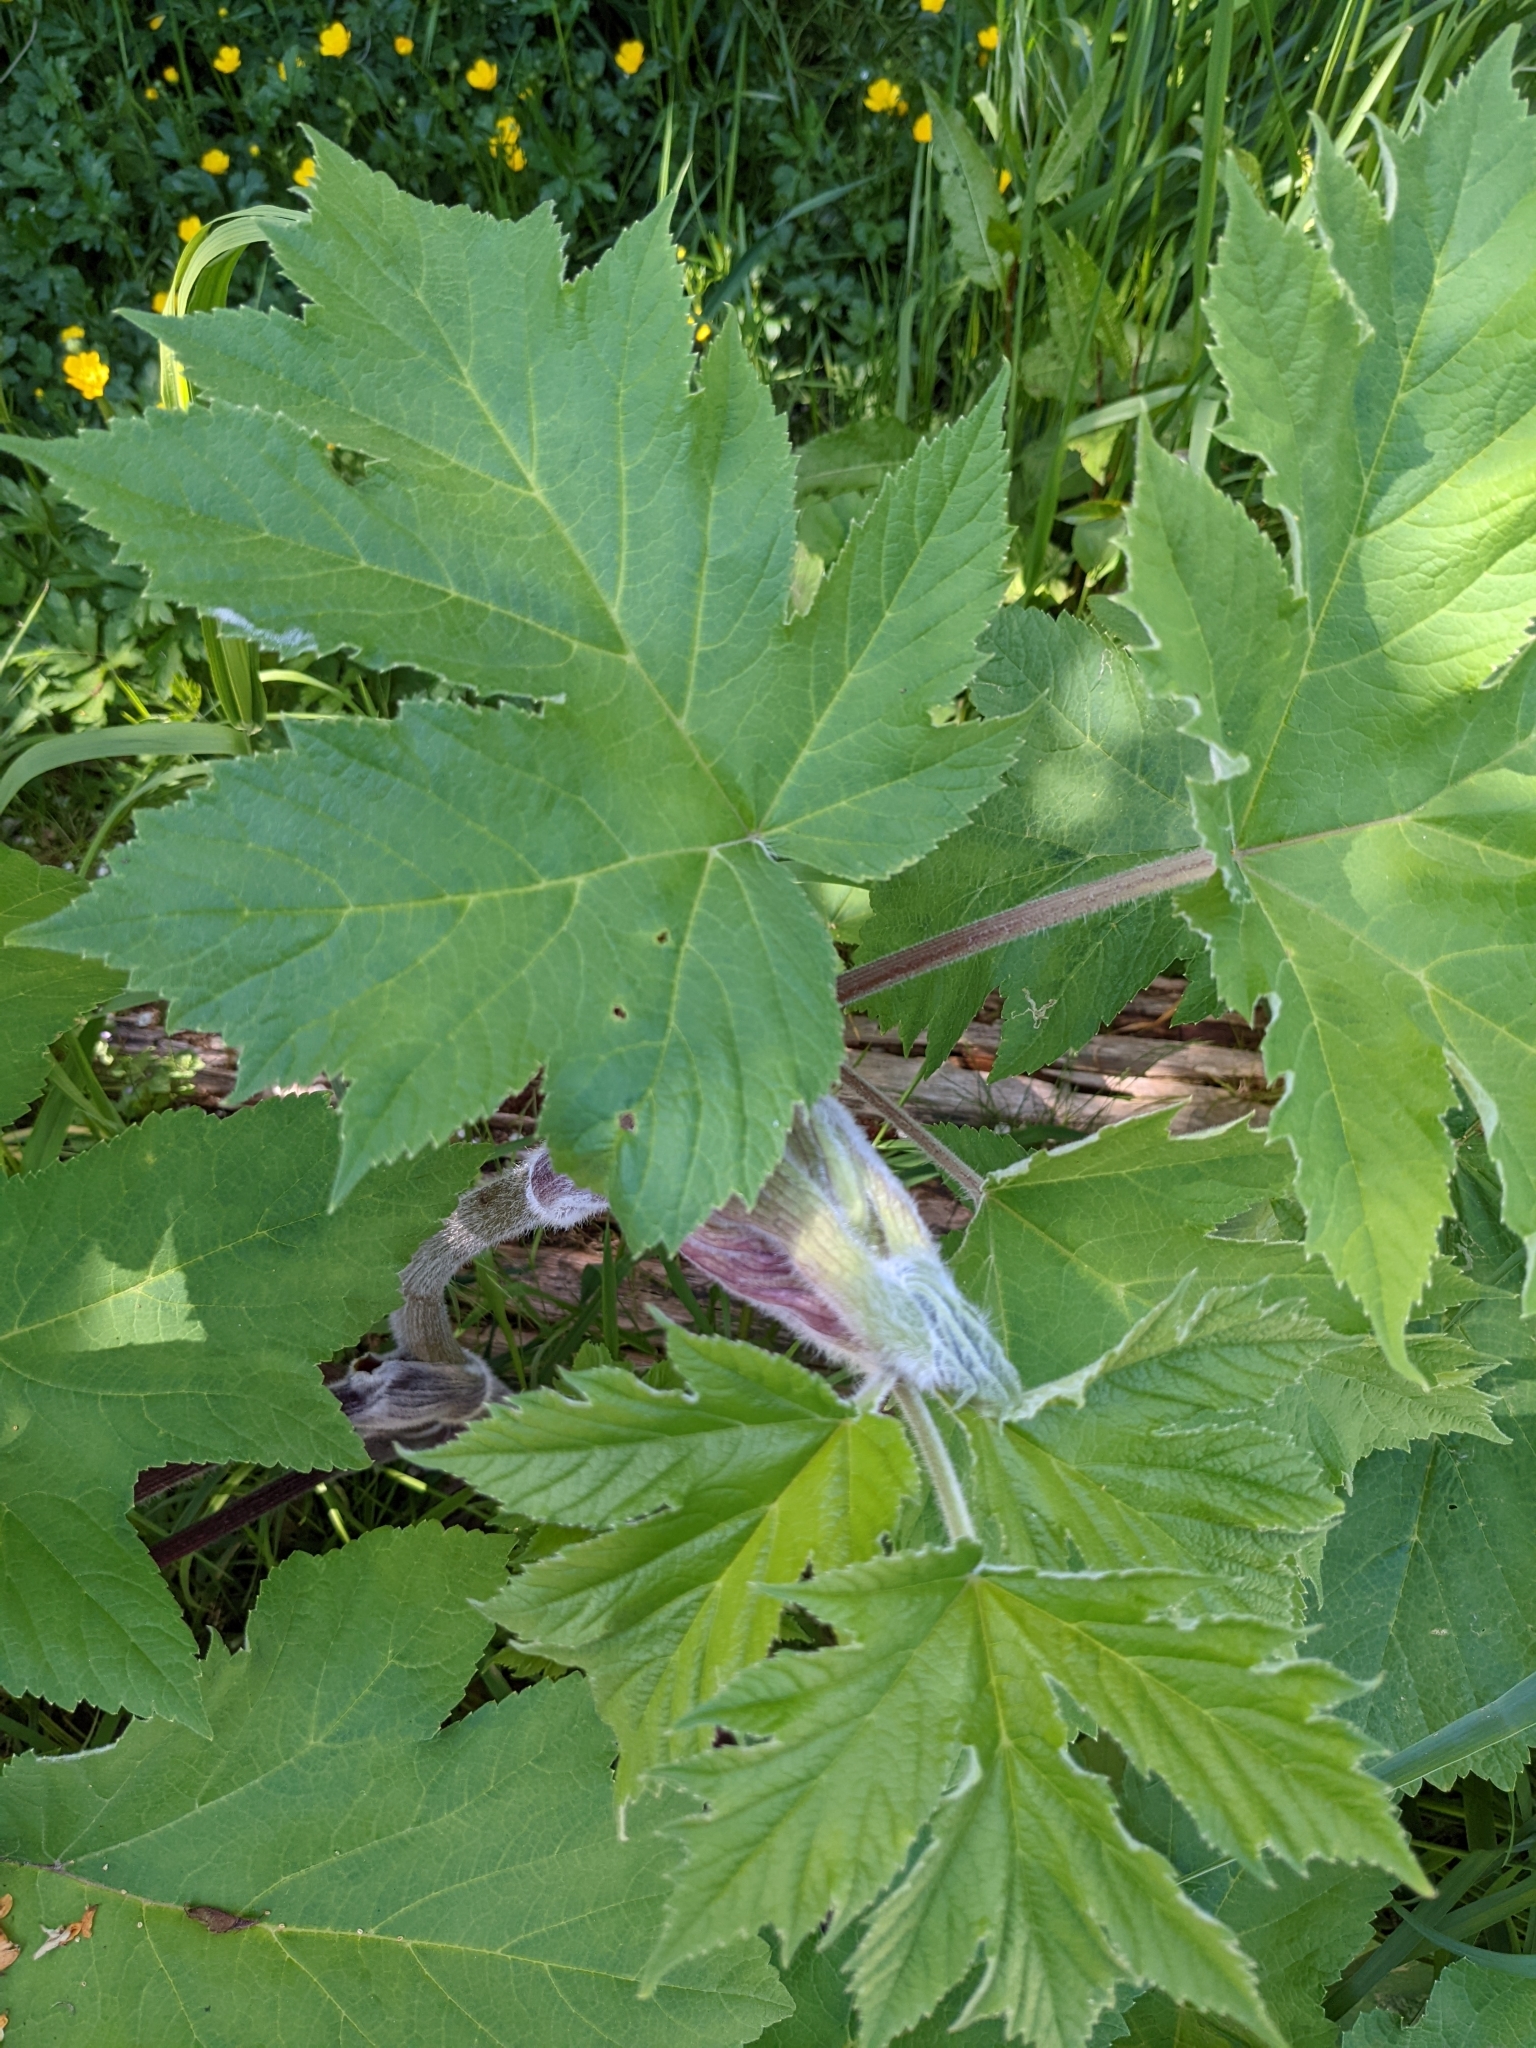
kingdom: Plantae
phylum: Tracheophyta
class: Magnoliopsida
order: Apiales
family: Apiaceae
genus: Heracleum
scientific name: Heracleum maximum
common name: American cow parsnip
